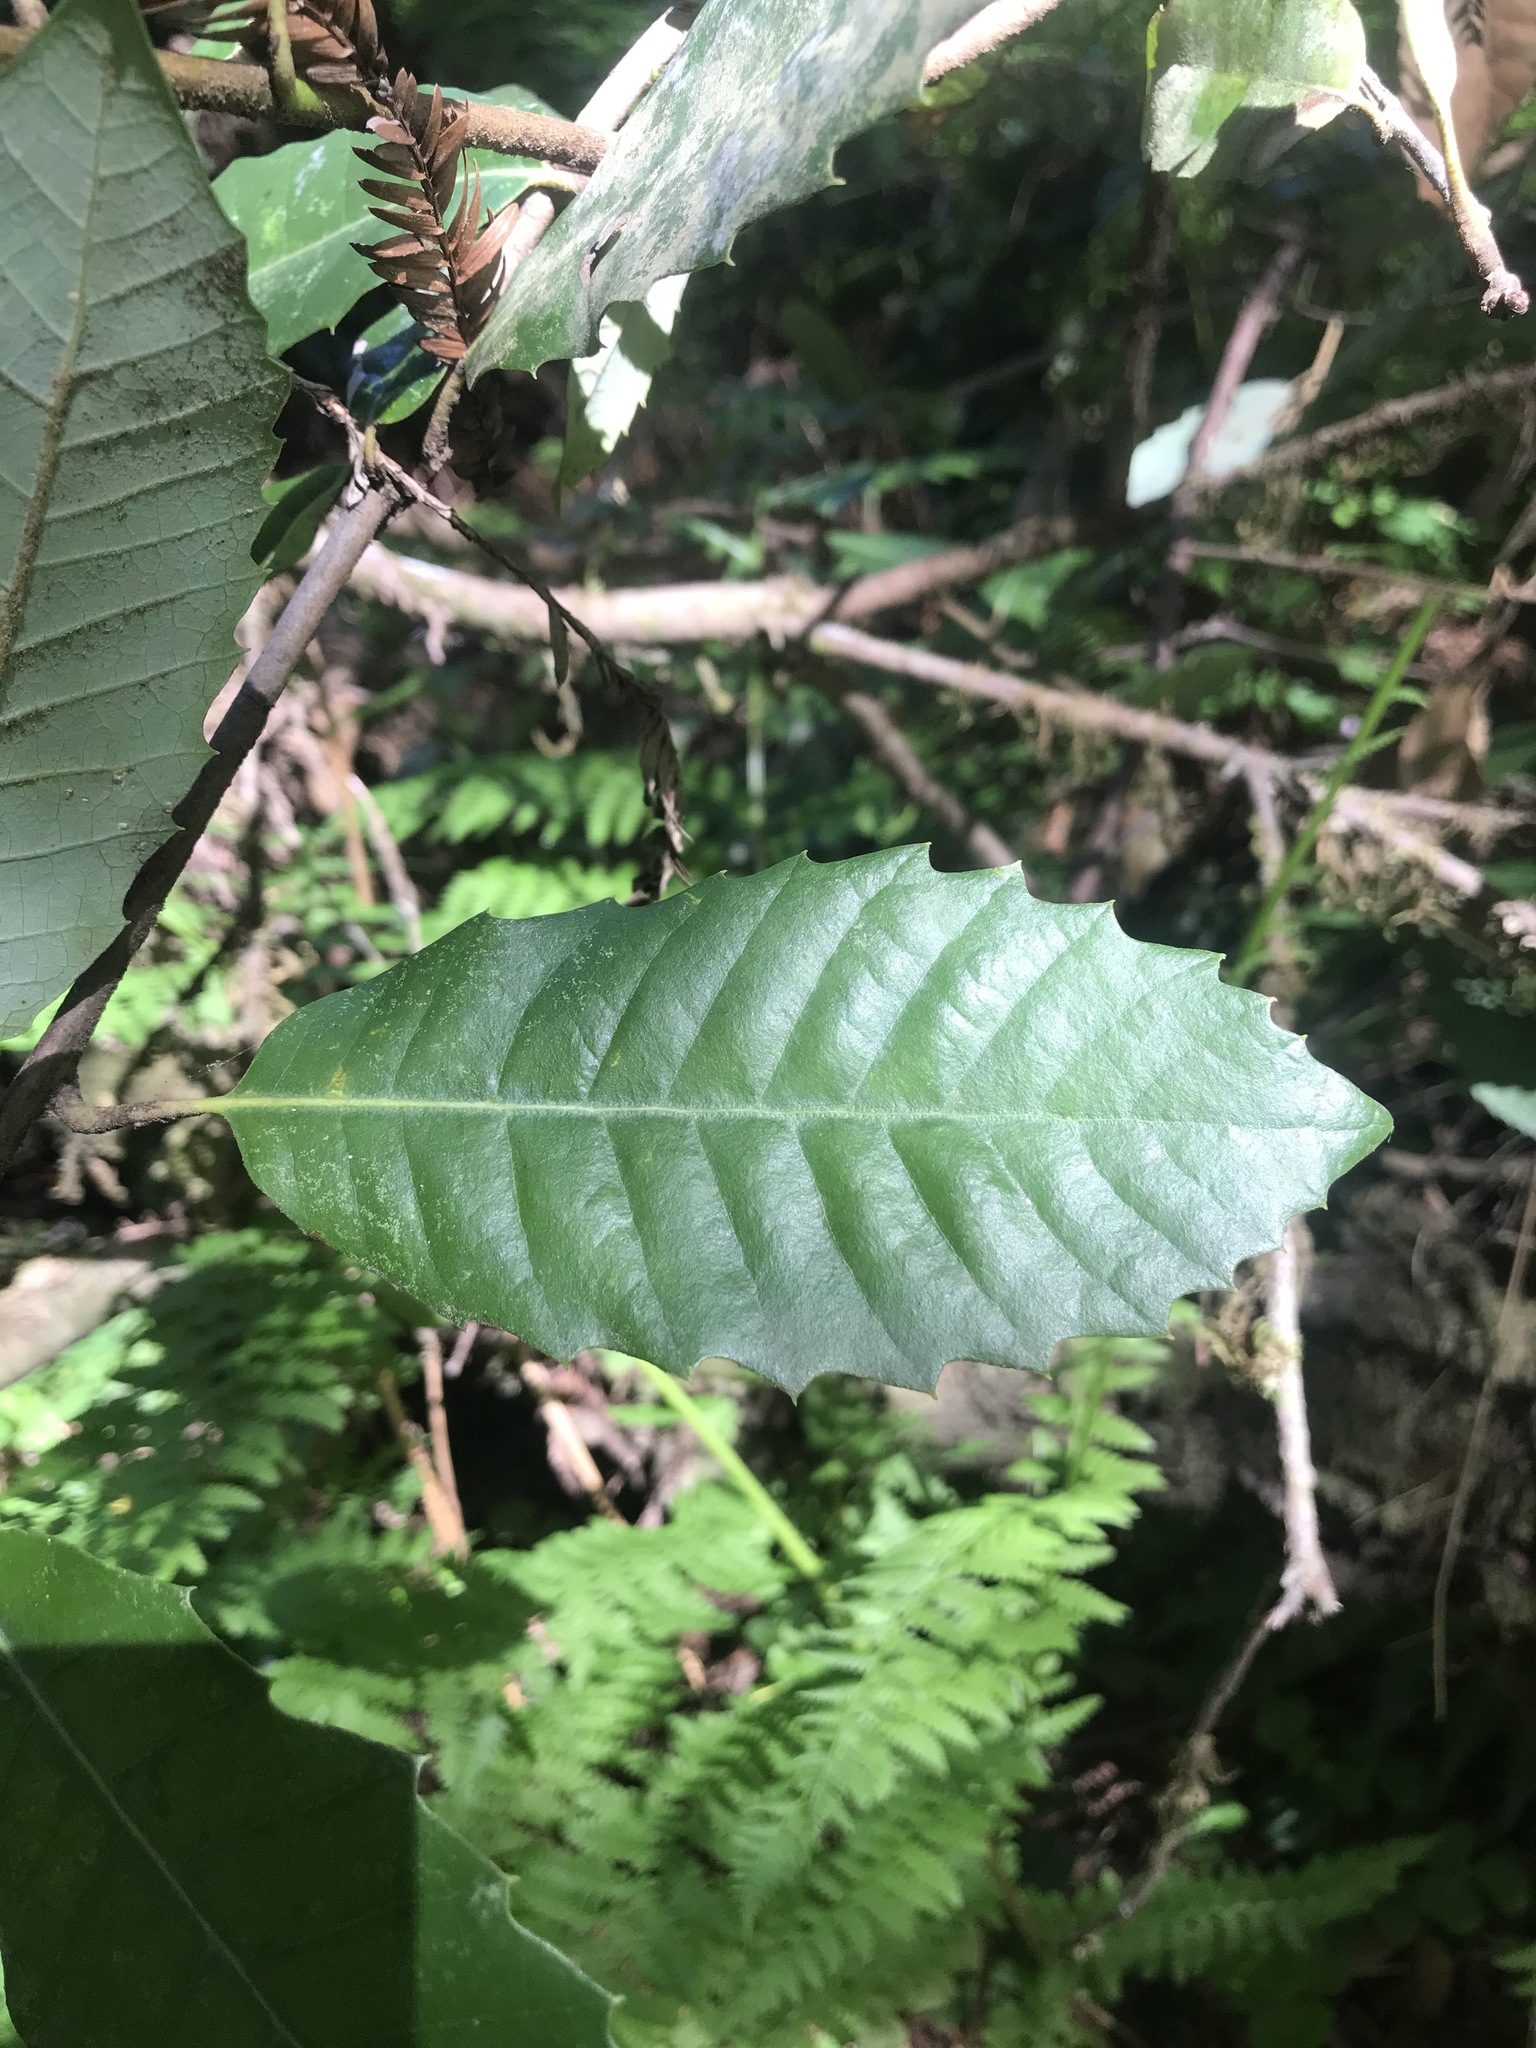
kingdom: Plantae
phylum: Tracheophyta
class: Magnoliopsida
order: Fagales
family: Fagaceae
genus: Notholithocarpus
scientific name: Notholithocarpus densiflorus
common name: Tan bark oak
